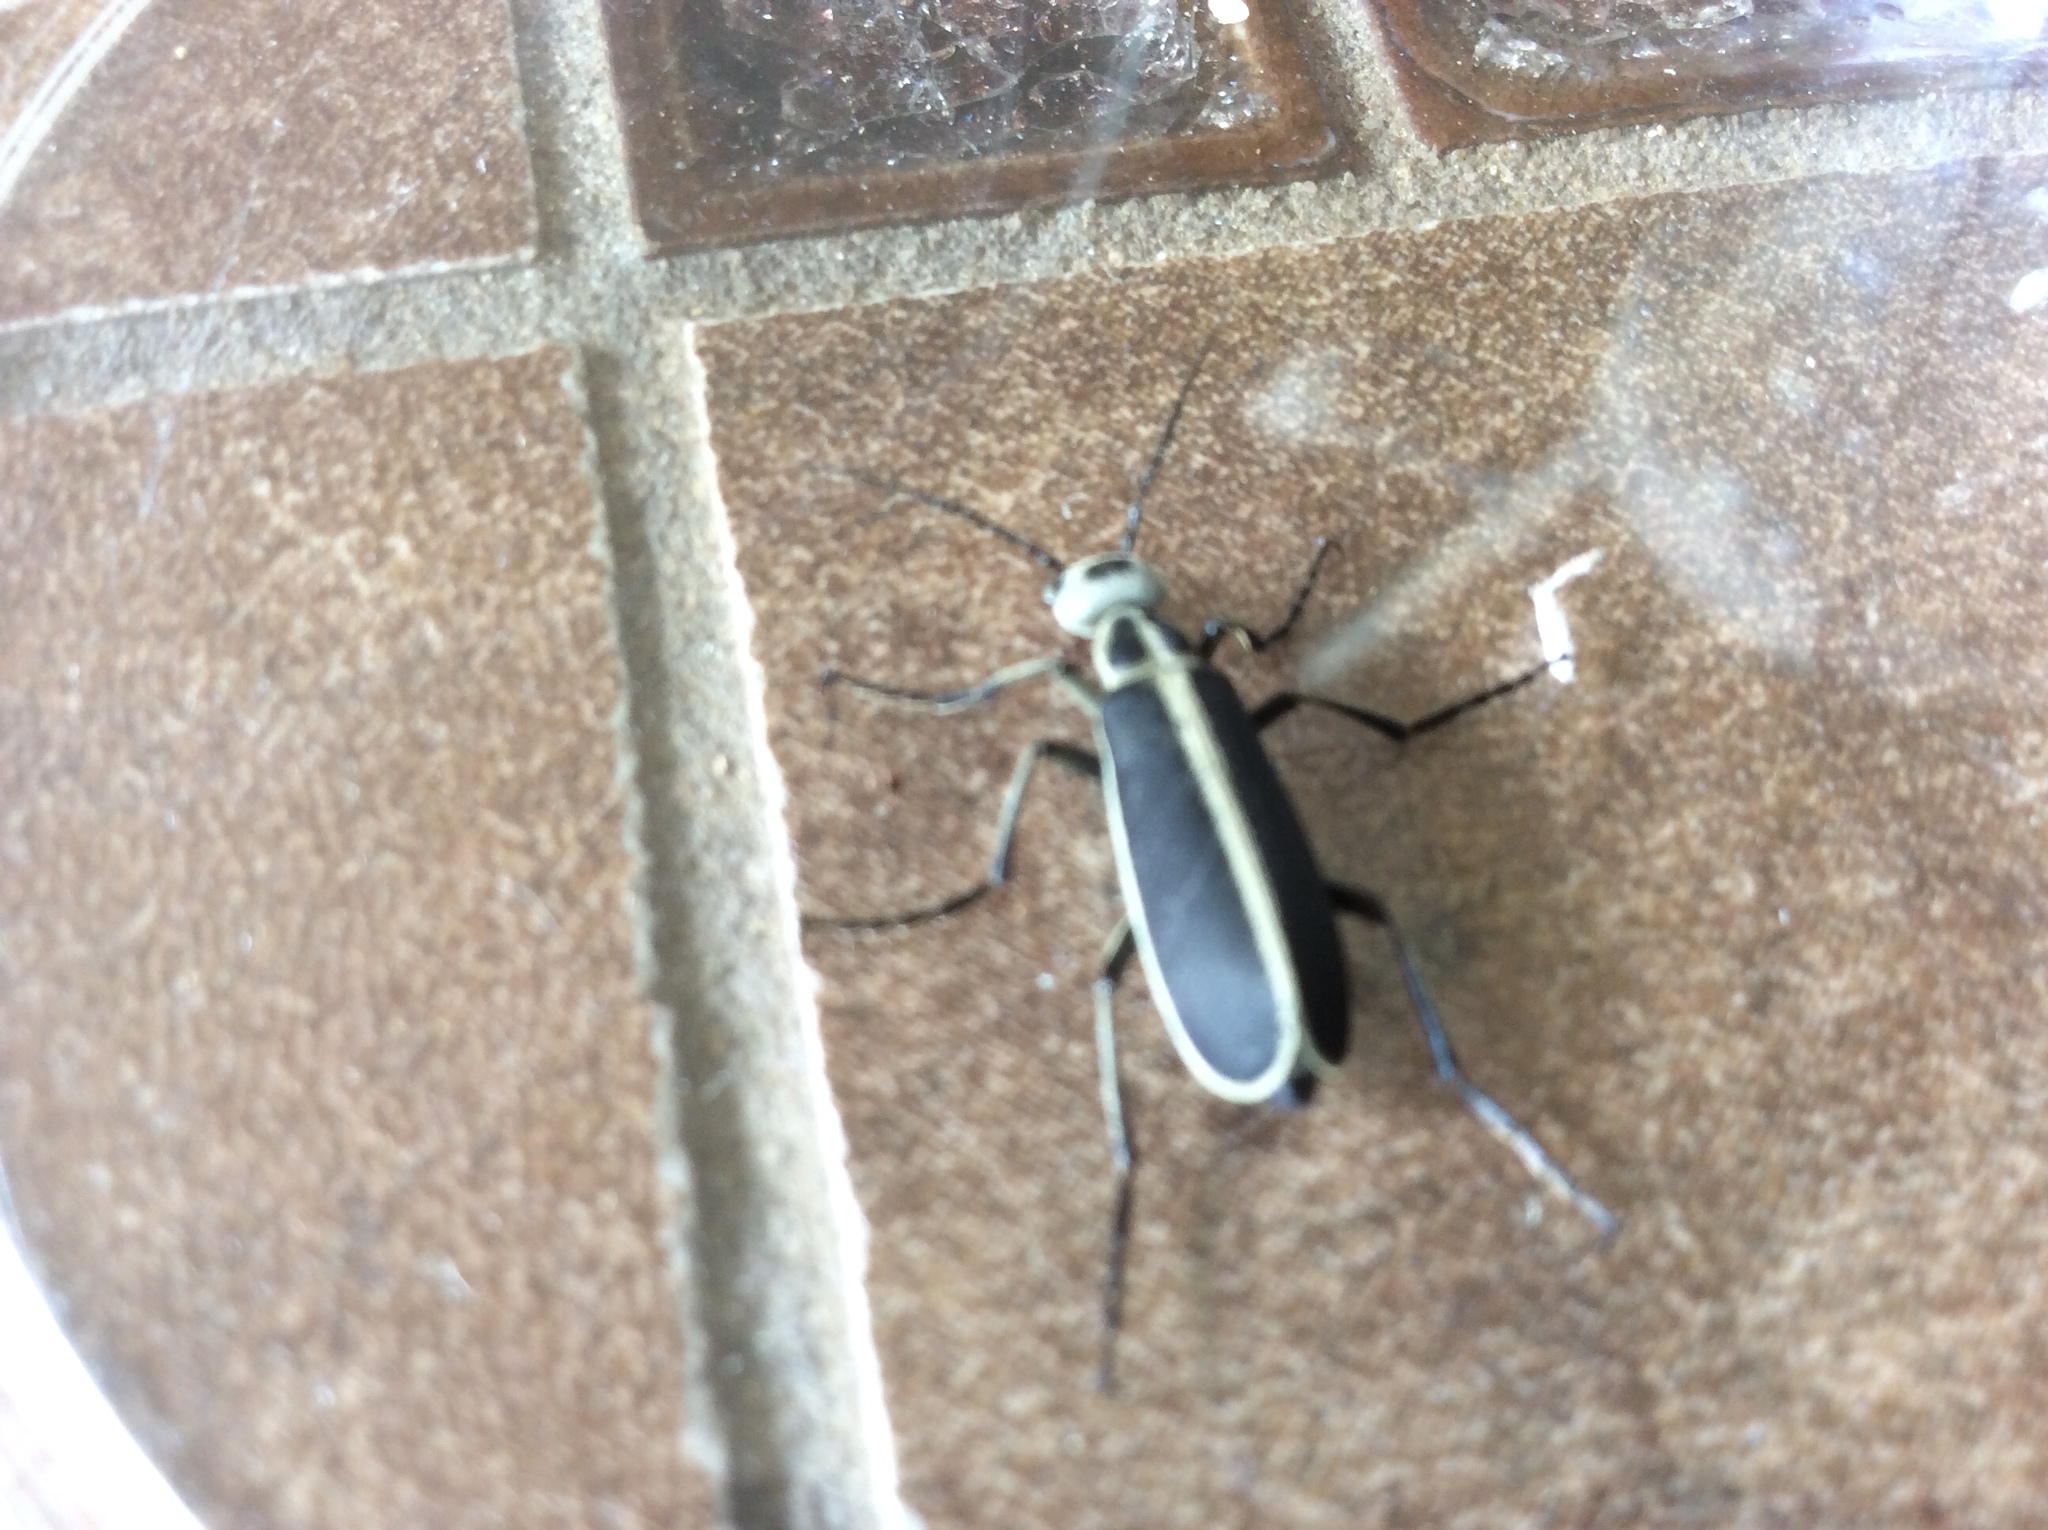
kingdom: Animalia
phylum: Arthropoda
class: Insecta
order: Coleoptera
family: Meloidae
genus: Epicauta
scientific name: Epicauta funebris
